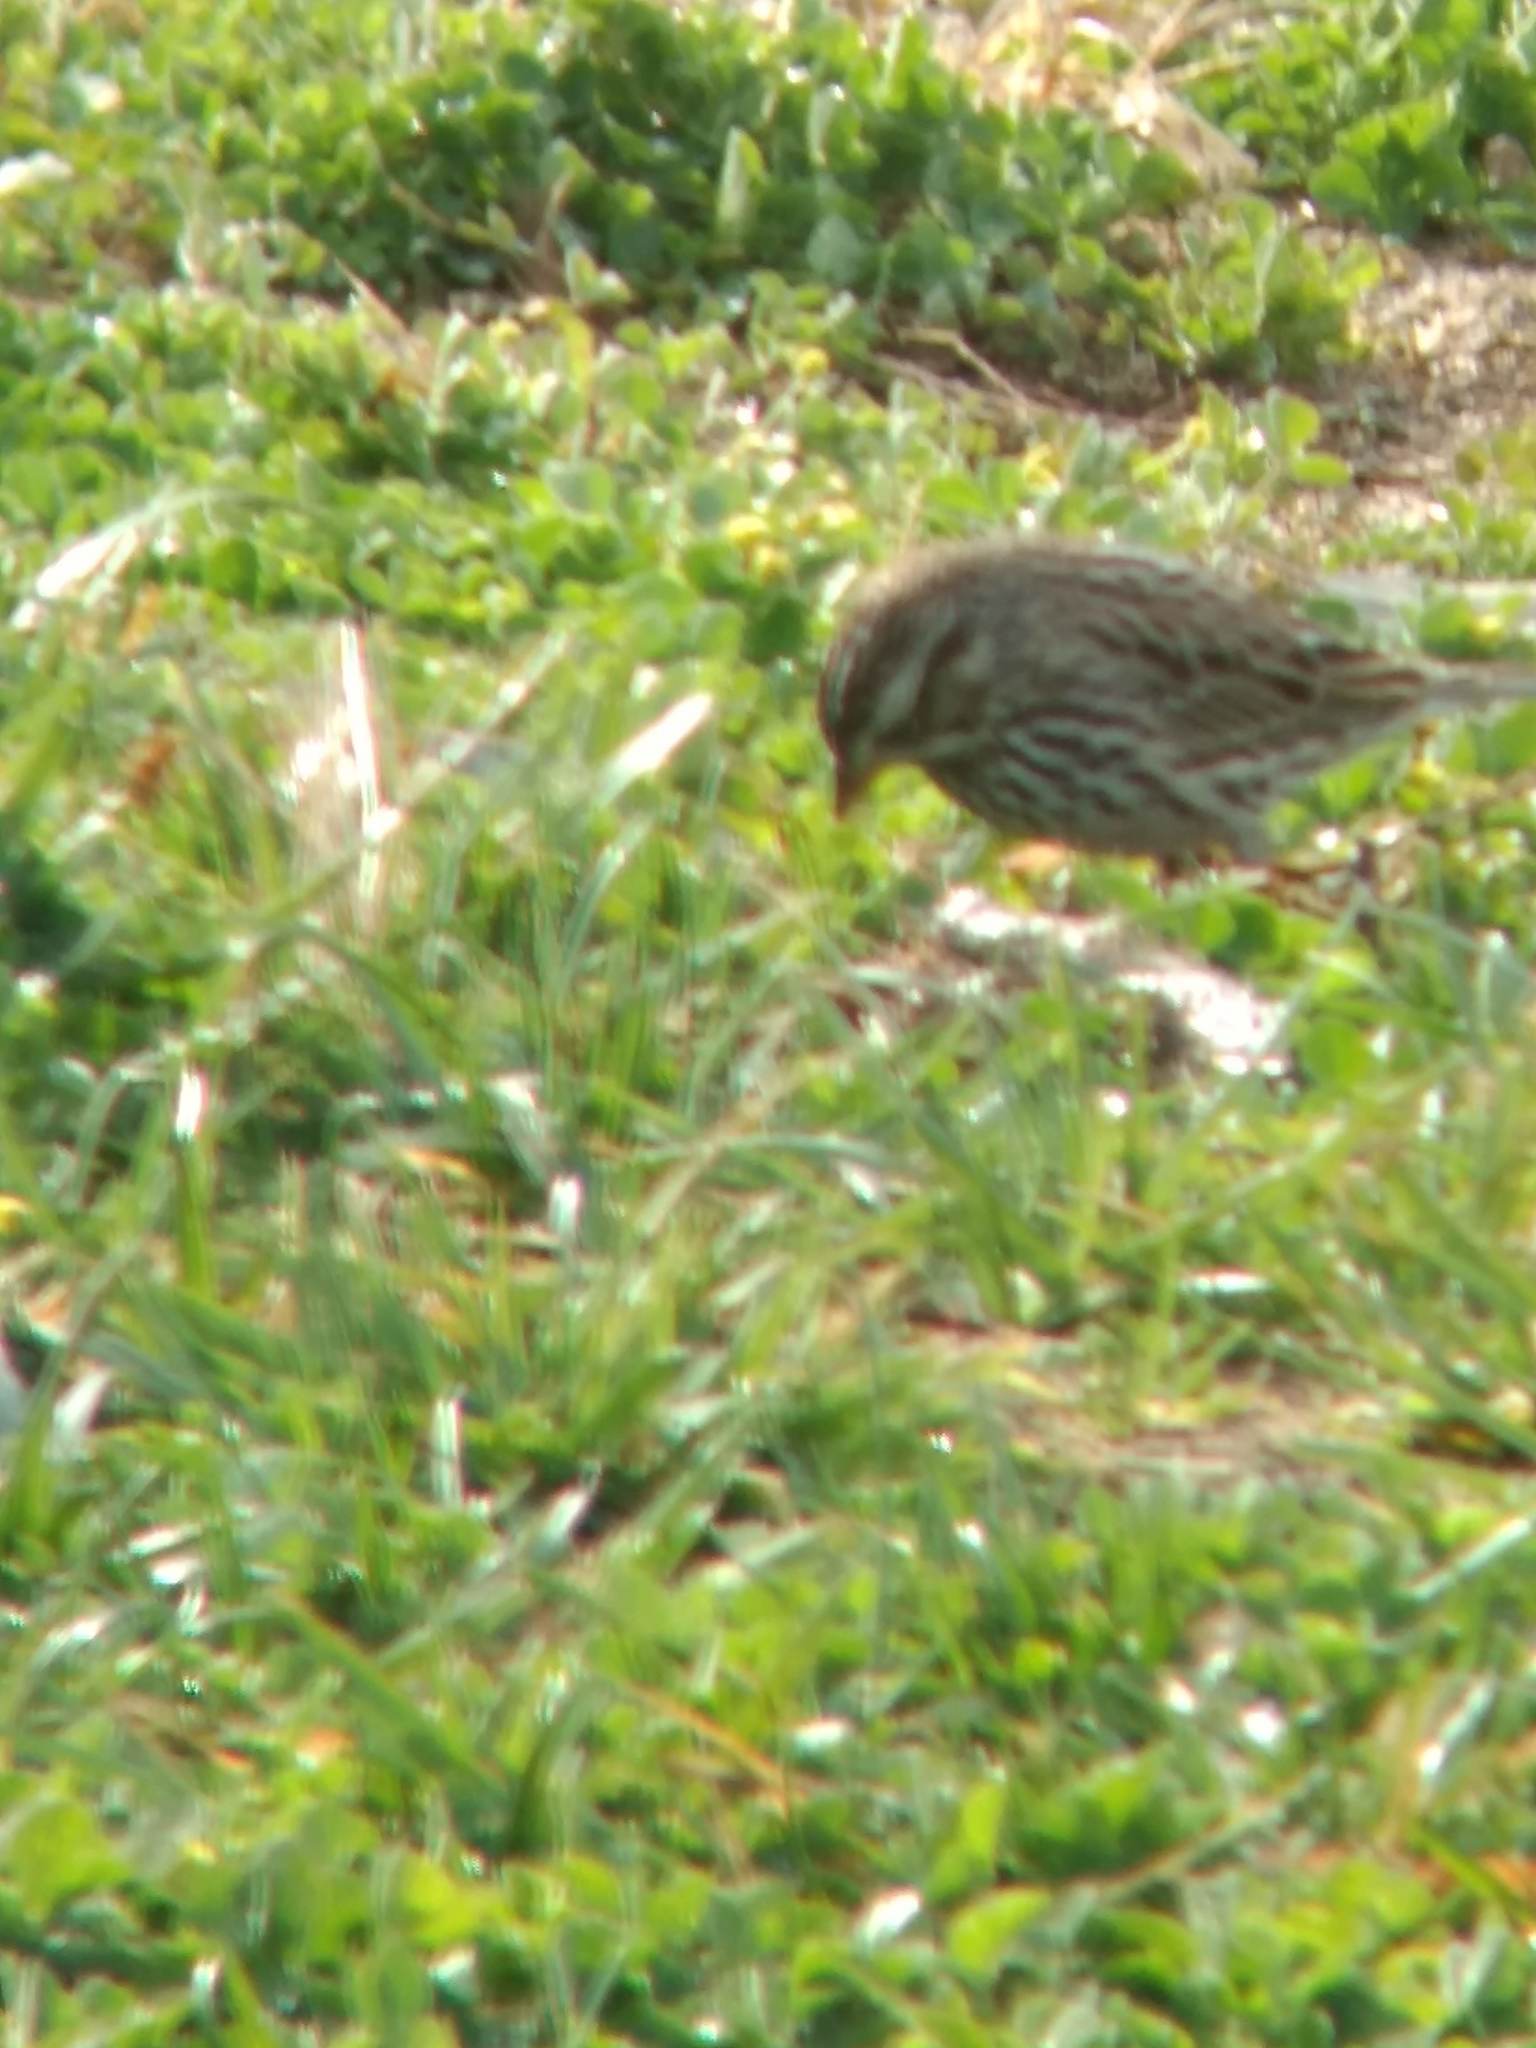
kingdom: Animalia
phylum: Chordata
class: Aves
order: Passeriformes
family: Passerellidae
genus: Passerculus
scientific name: Passerculus sandwichensis
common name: Savannah sparrow
